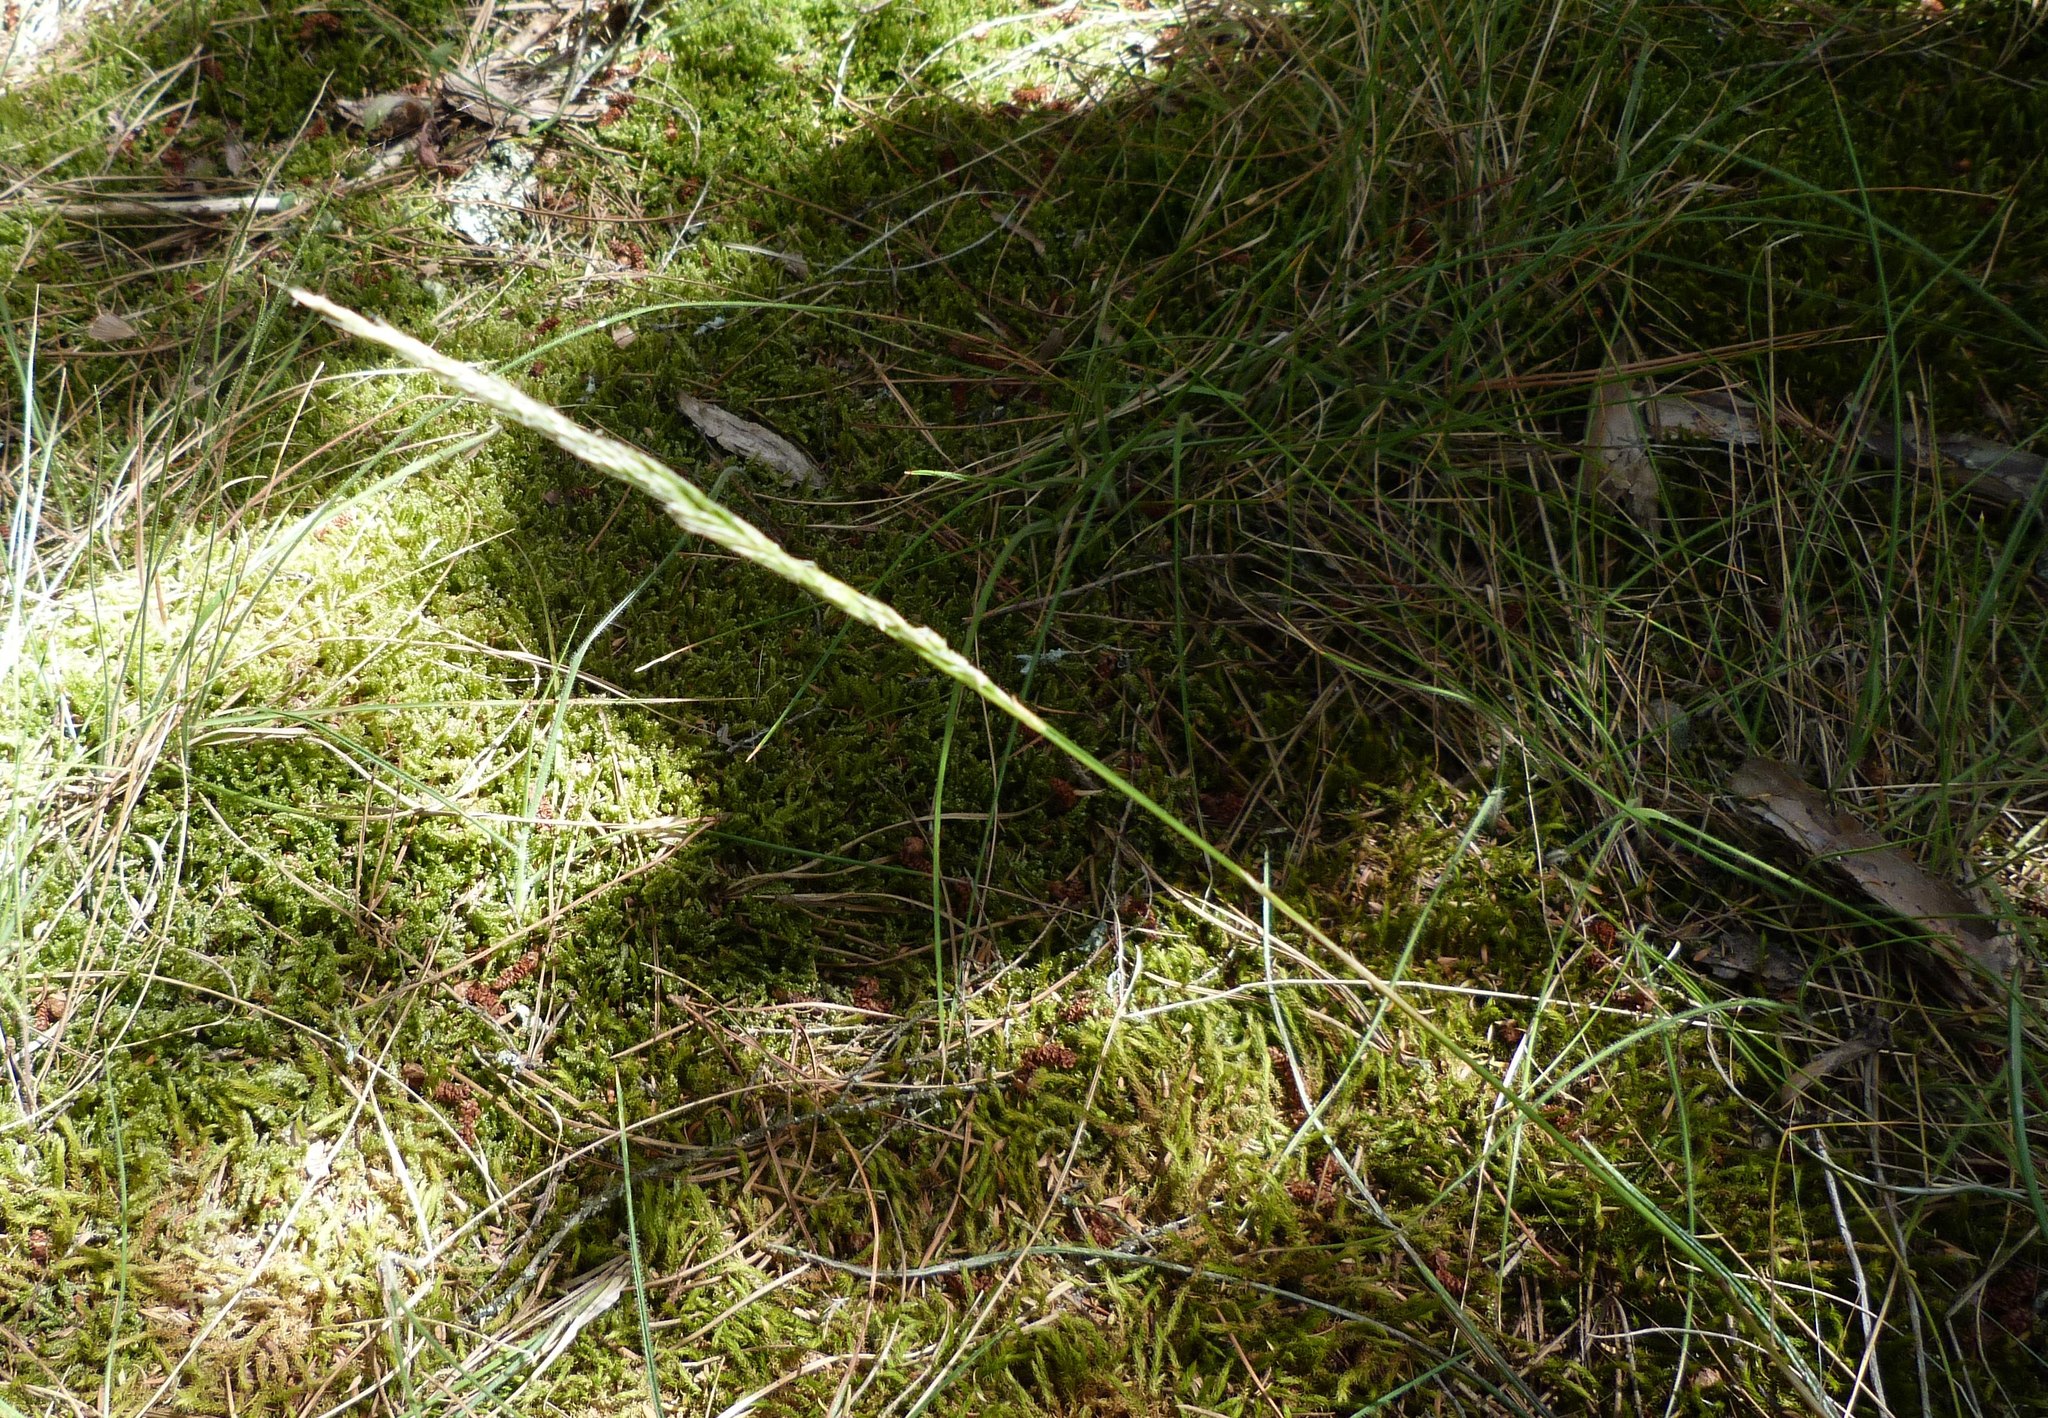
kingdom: Plantae
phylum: Tracheophyta
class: Liliopsida
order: Poales
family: Poaceae
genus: Calamagrostis
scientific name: Calamagrostis avenoides
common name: Mountain oat grass
